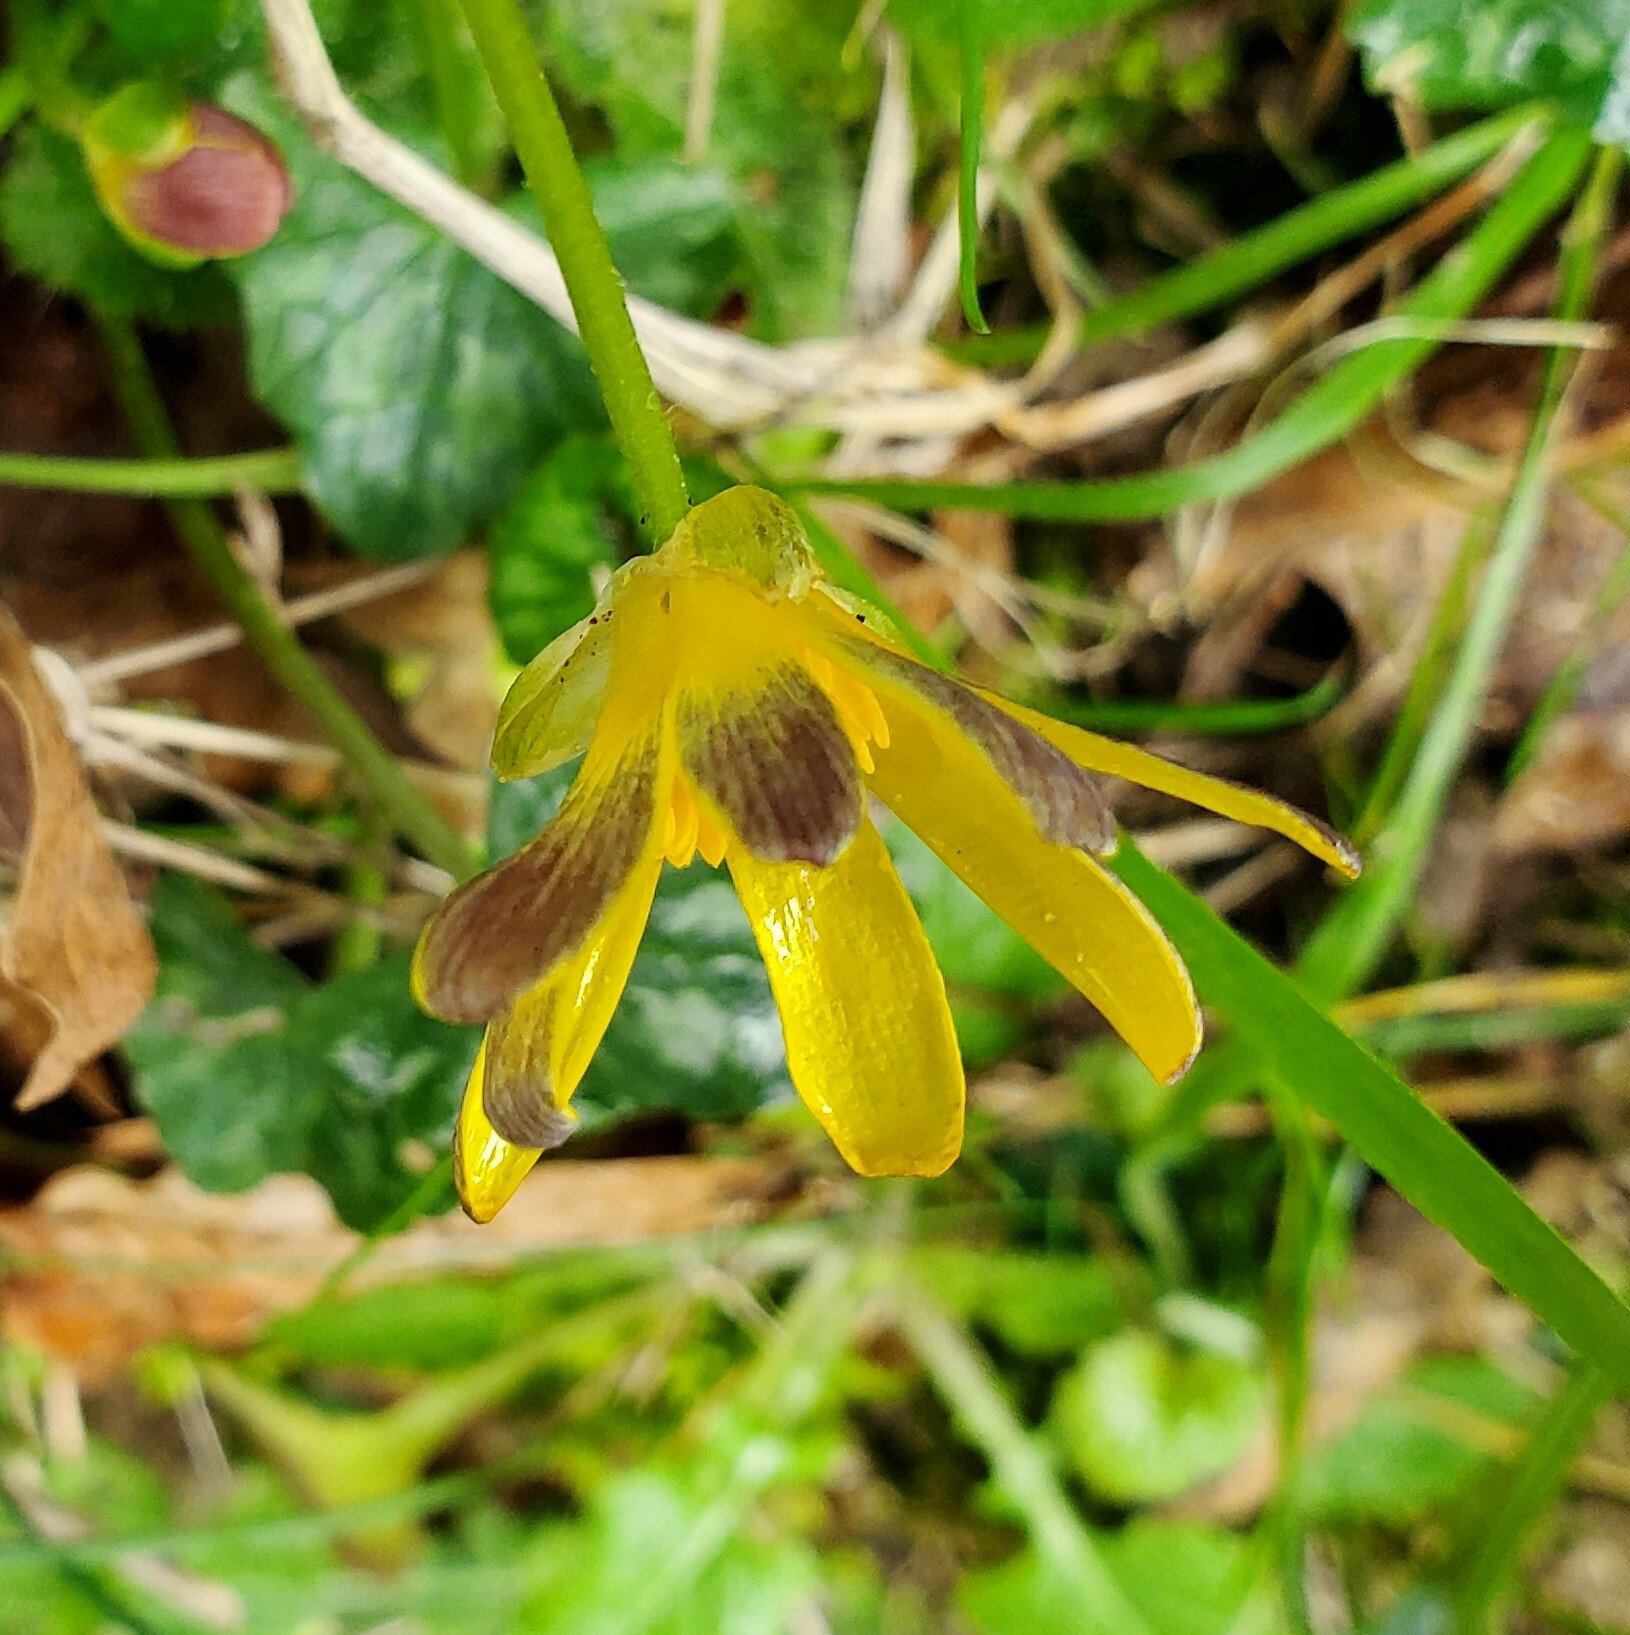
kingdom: Plantae
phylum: Tracheophyta
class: Magnoliopsida
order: Ranunculales
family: Ranunculaceae
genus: Ficaria
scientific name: Ficaria verna
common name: Lesser celandine
